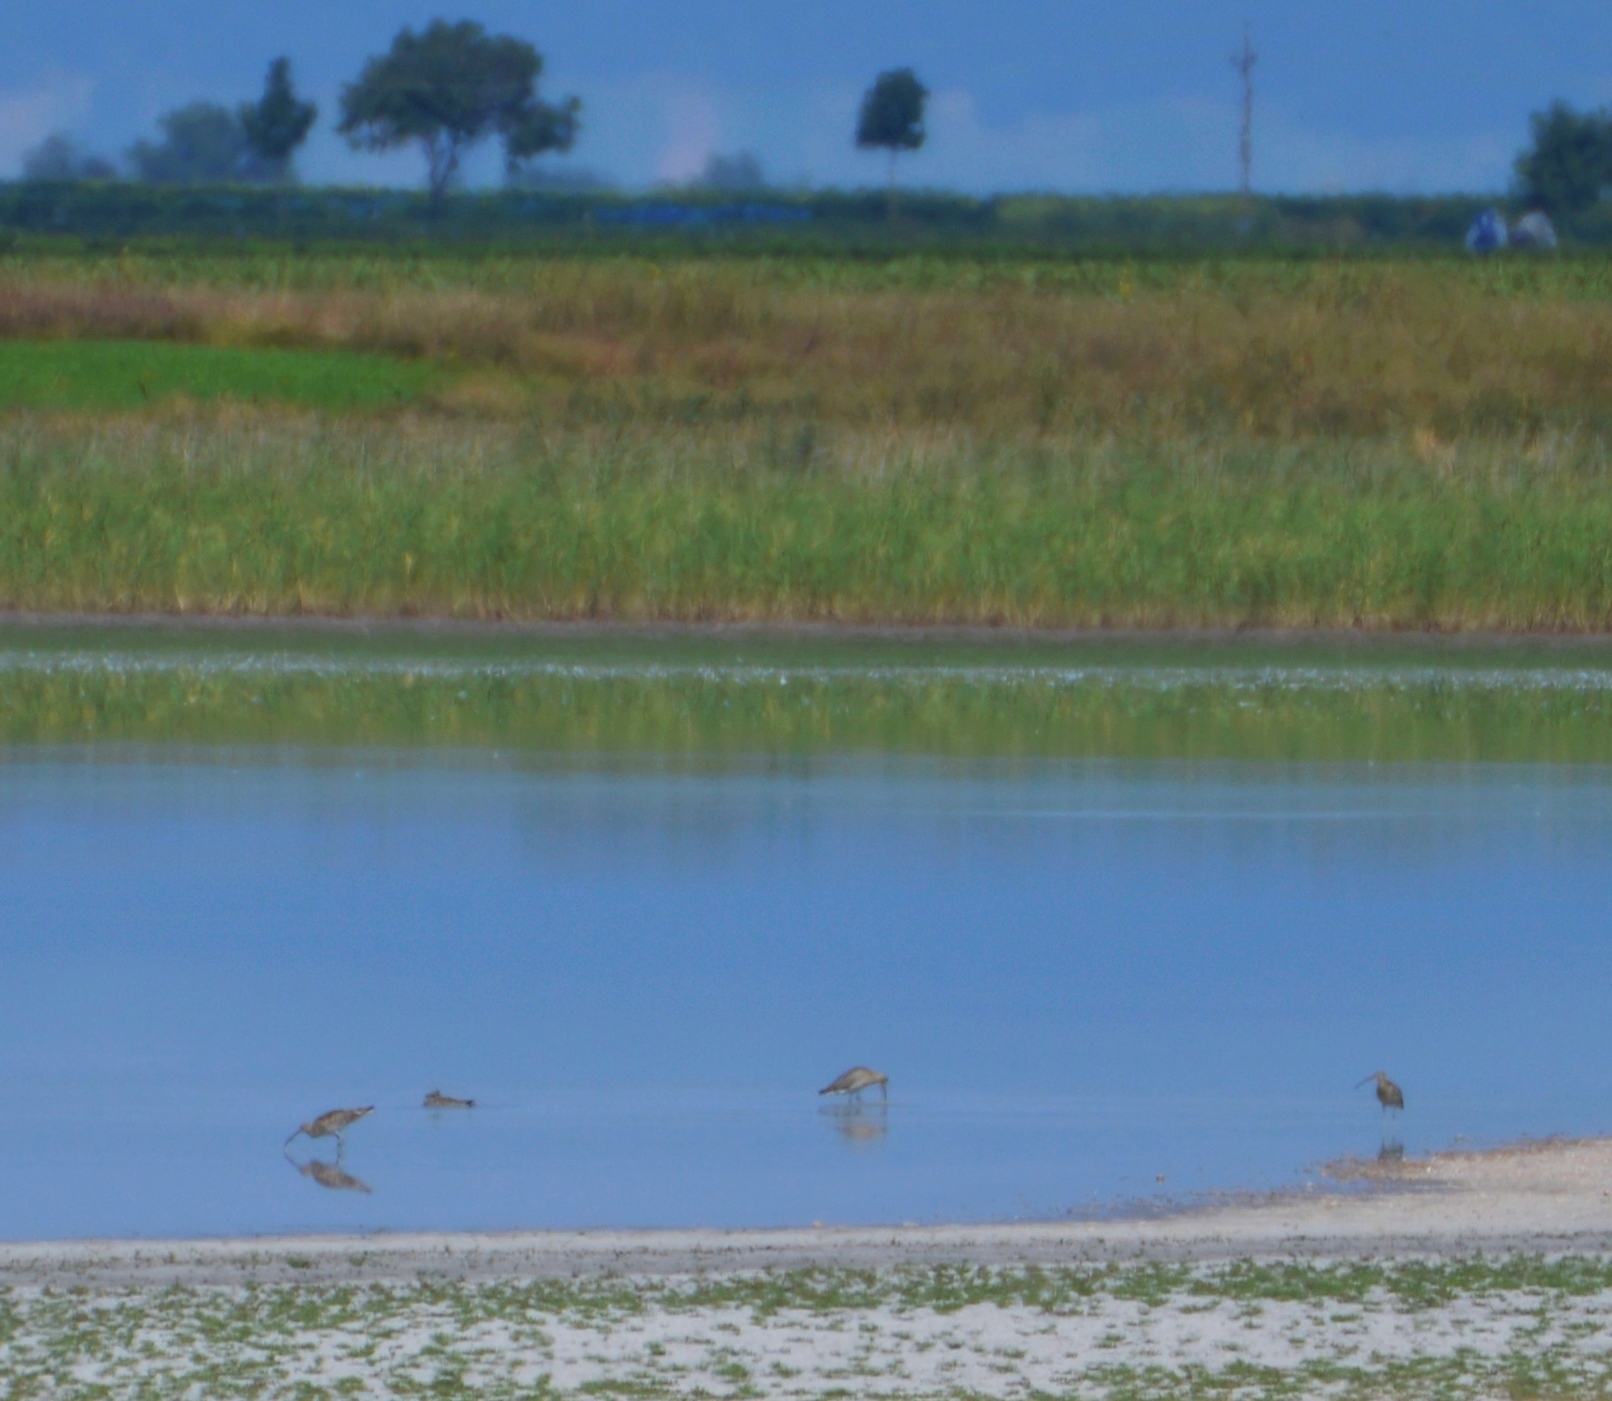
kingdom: Animalia
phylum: Chordata
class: Aves
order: Charadriiformes
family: Scolopacidae
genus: Numenius
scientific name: Numenius arquata
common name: Eurasian curlew
